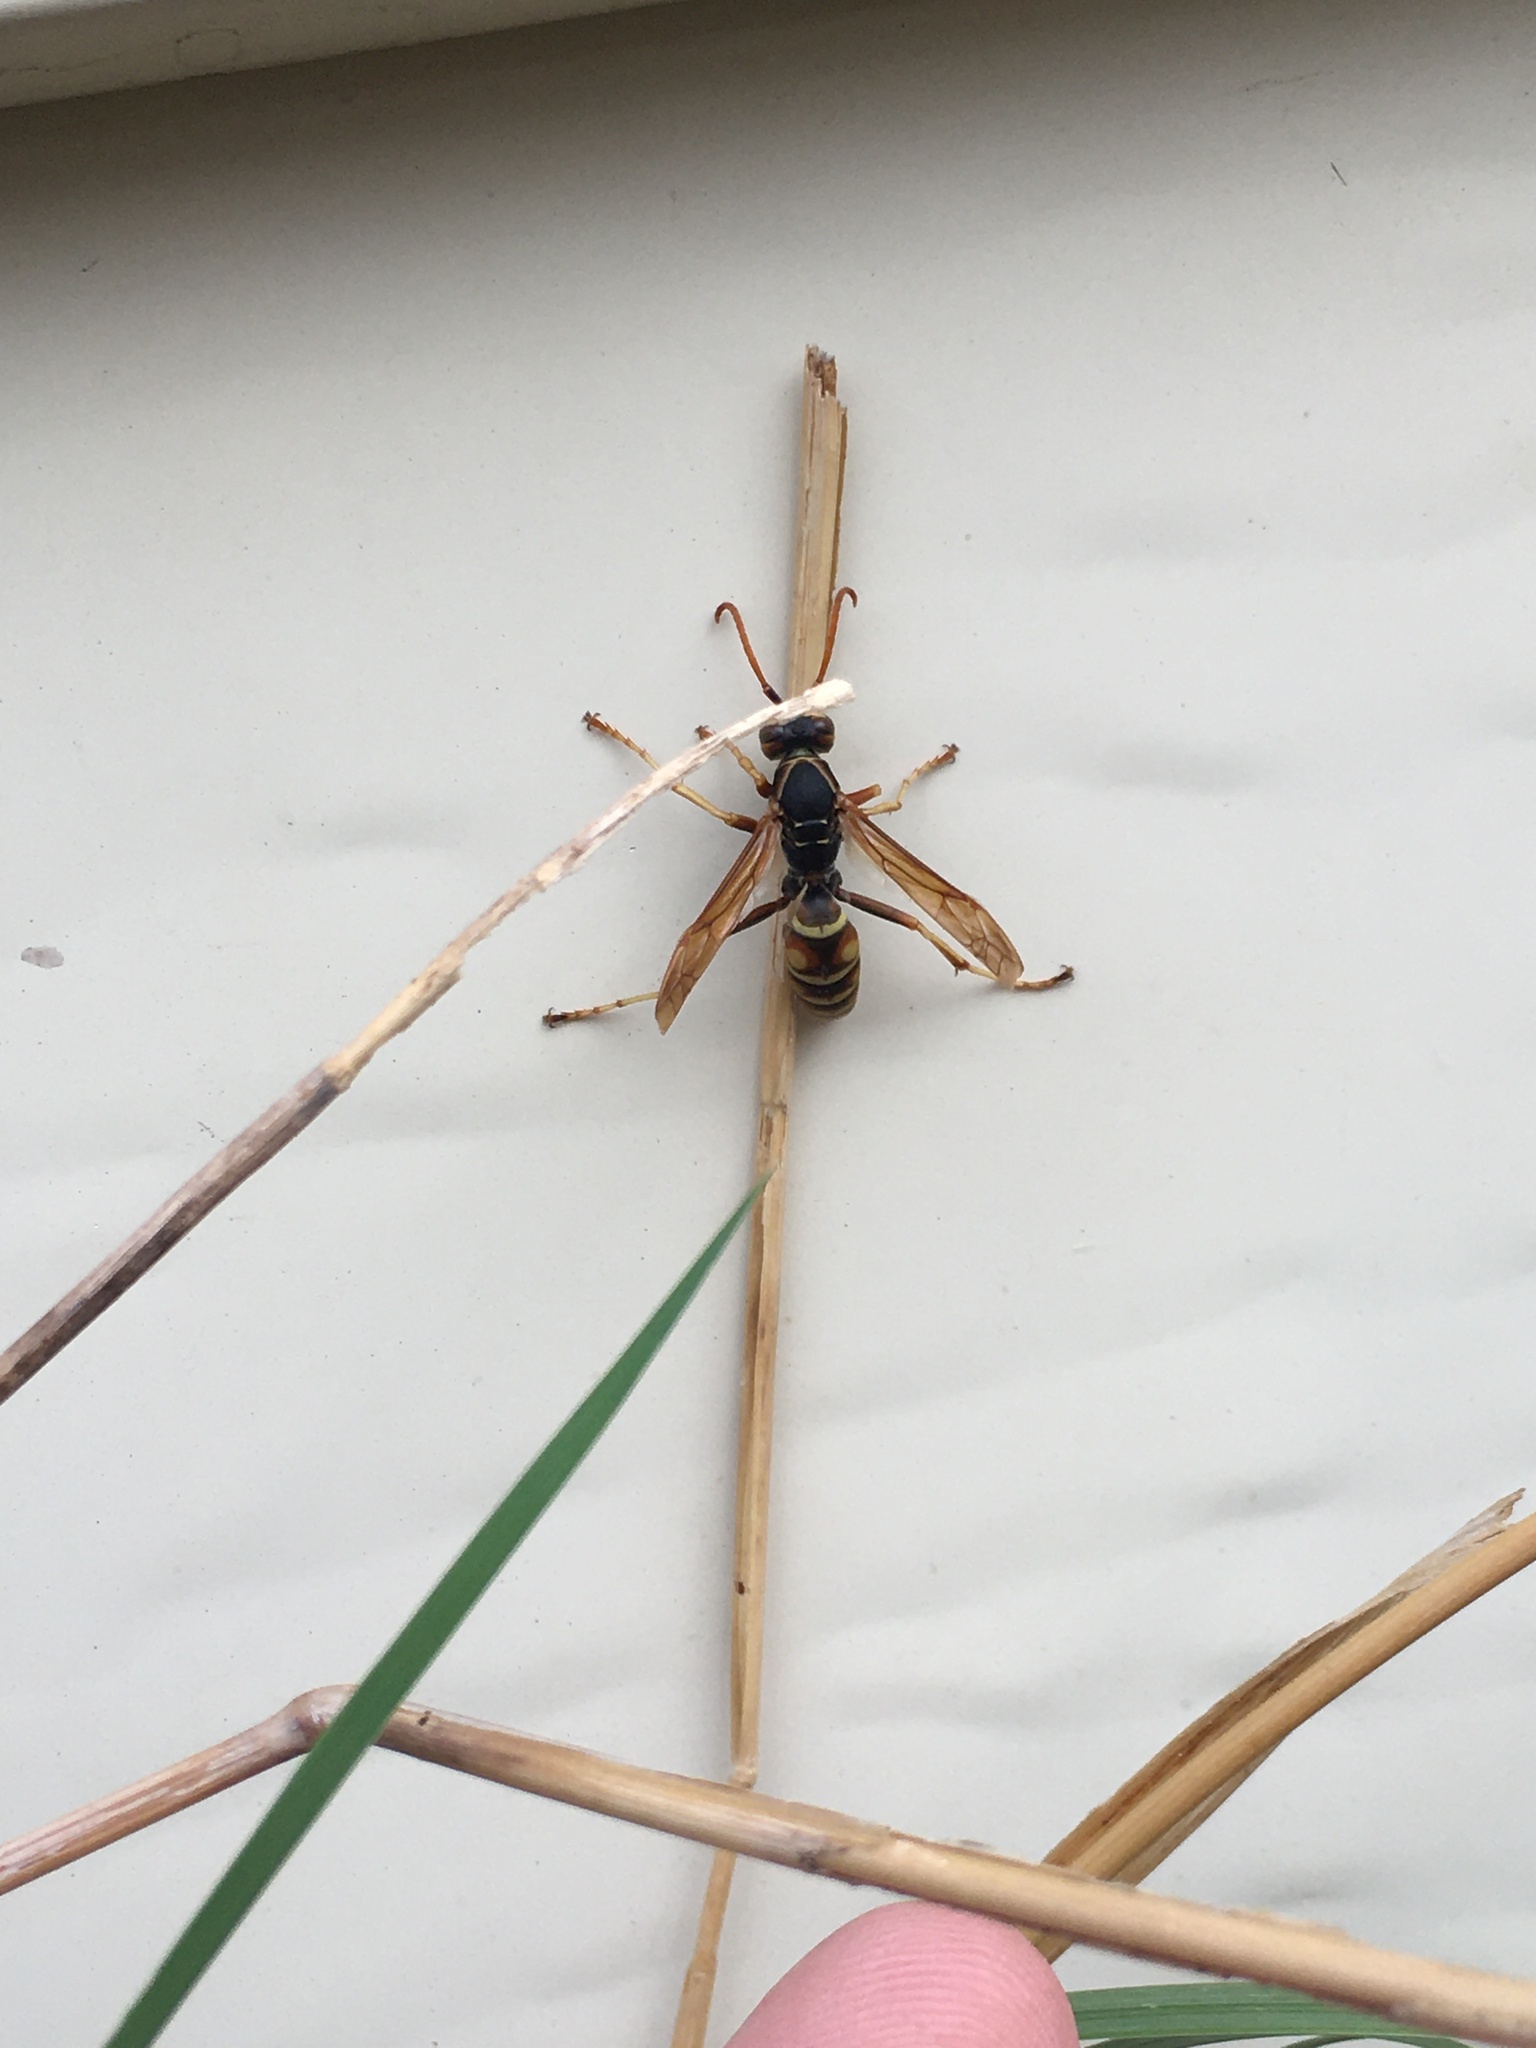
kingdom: Animalia
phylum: Arthropoda
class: Insecta
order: Hymenoptera
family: Eumenidae
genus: Polistes
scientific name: Polistes aurifer
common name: Paper wasp
